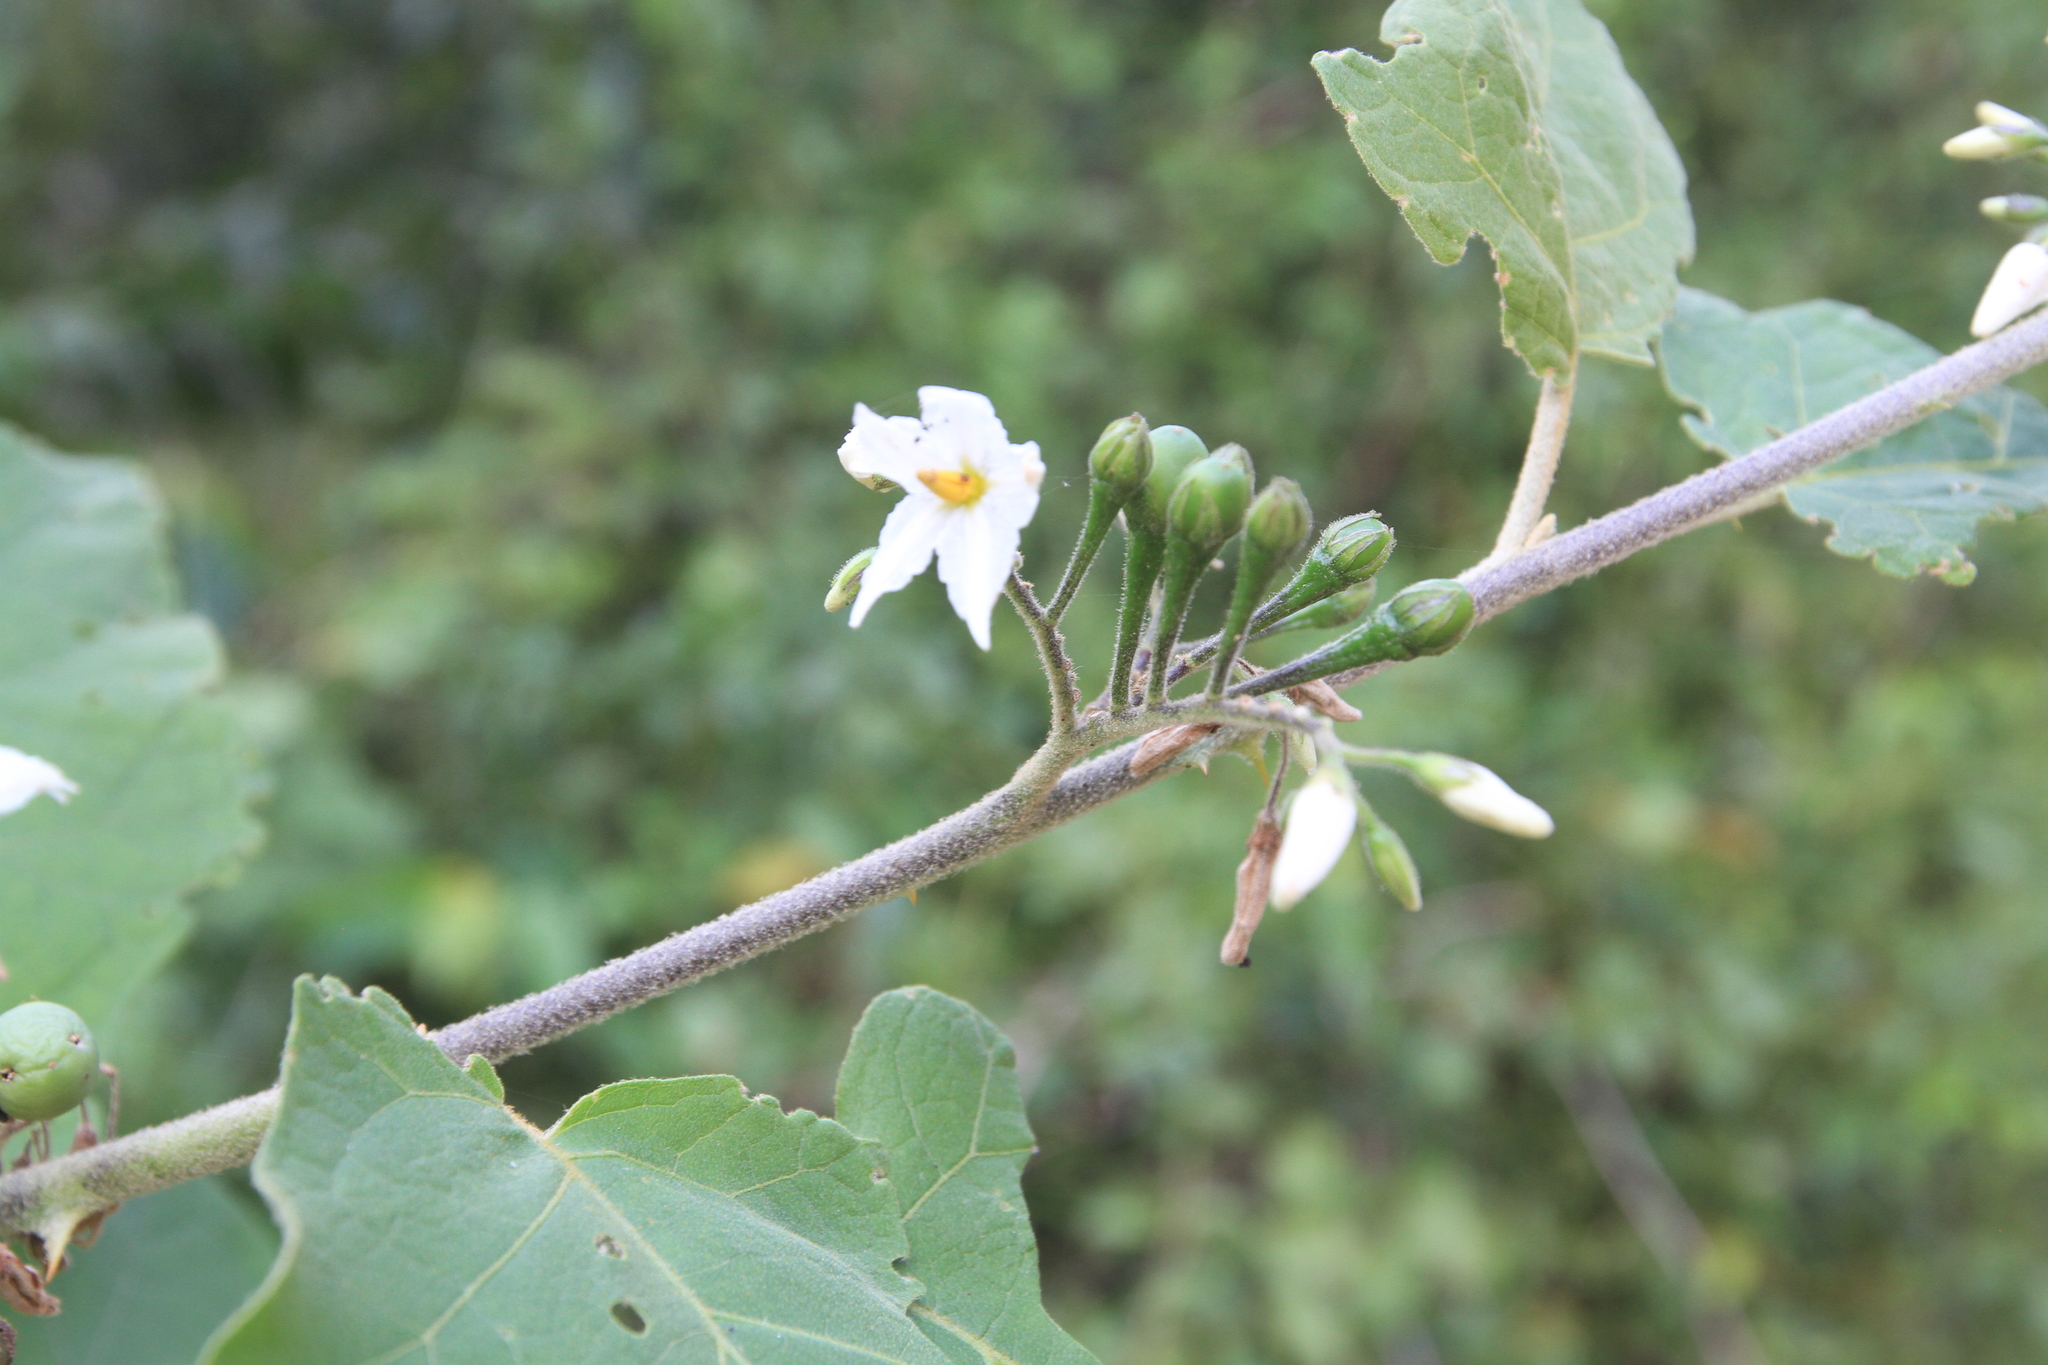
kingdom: Plantae
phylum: Tracheophyta
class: Magnoliopsida
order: Solanales
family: Solanaceae
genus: Solanum
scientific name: Solanum torvum
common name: Turkey berry
